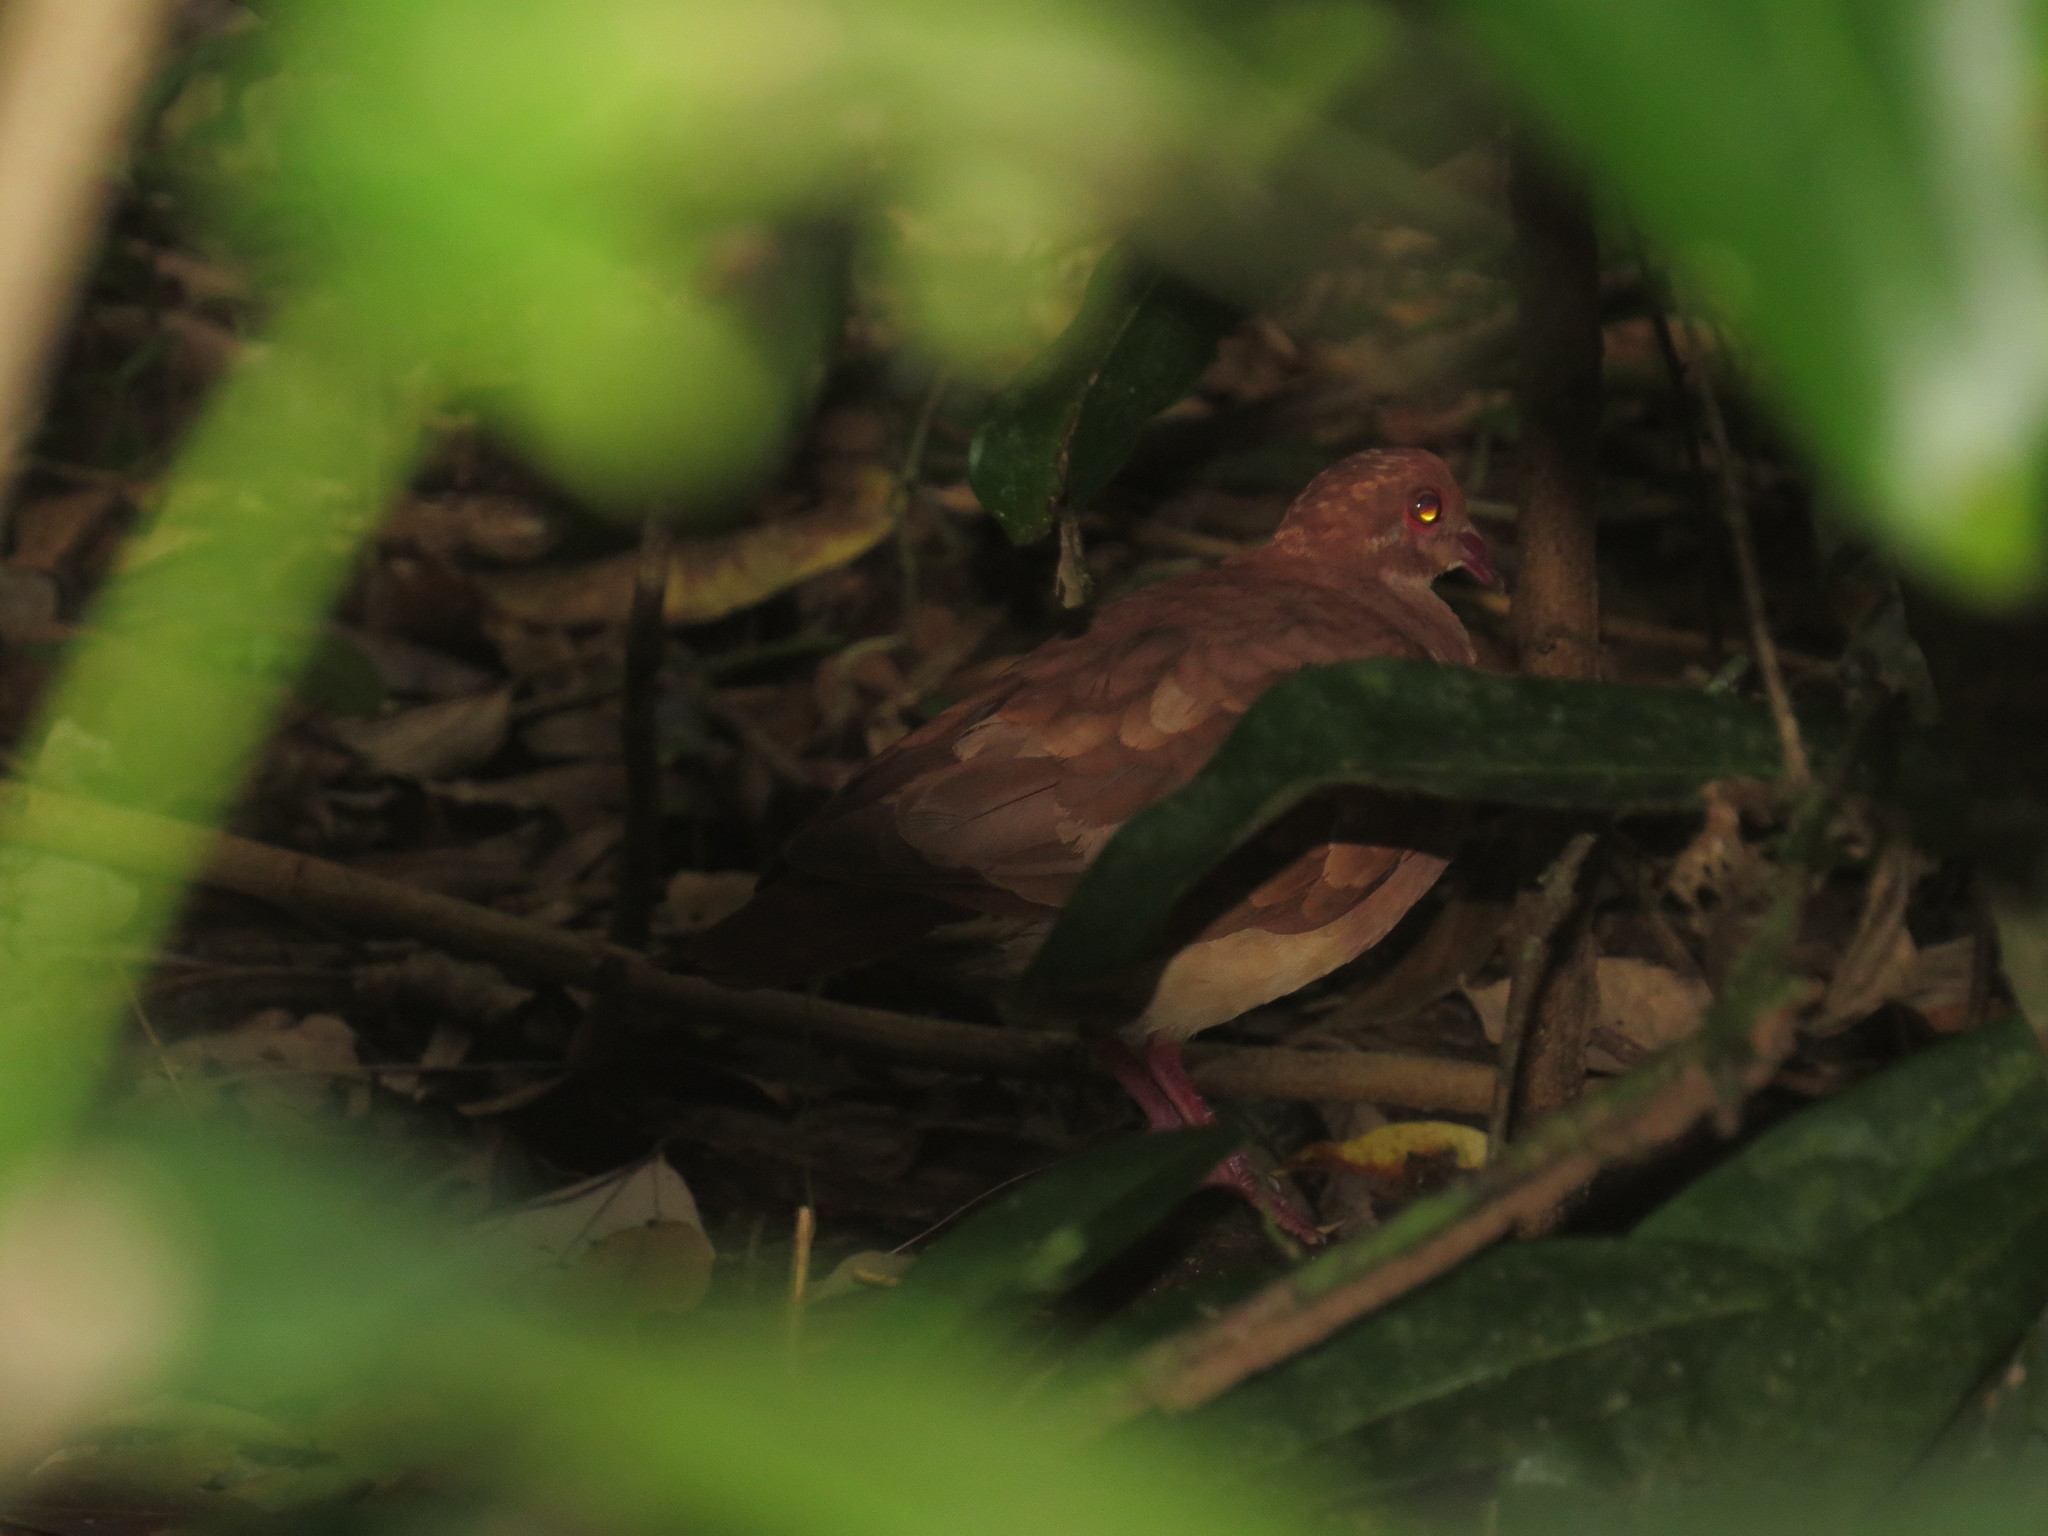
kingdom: Animalia
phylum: Chordata
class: Aves
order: Columbiformes
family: Columbidae
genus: Geotrygon
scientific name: Geotrygon montana
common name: Ruddy quail-dove
